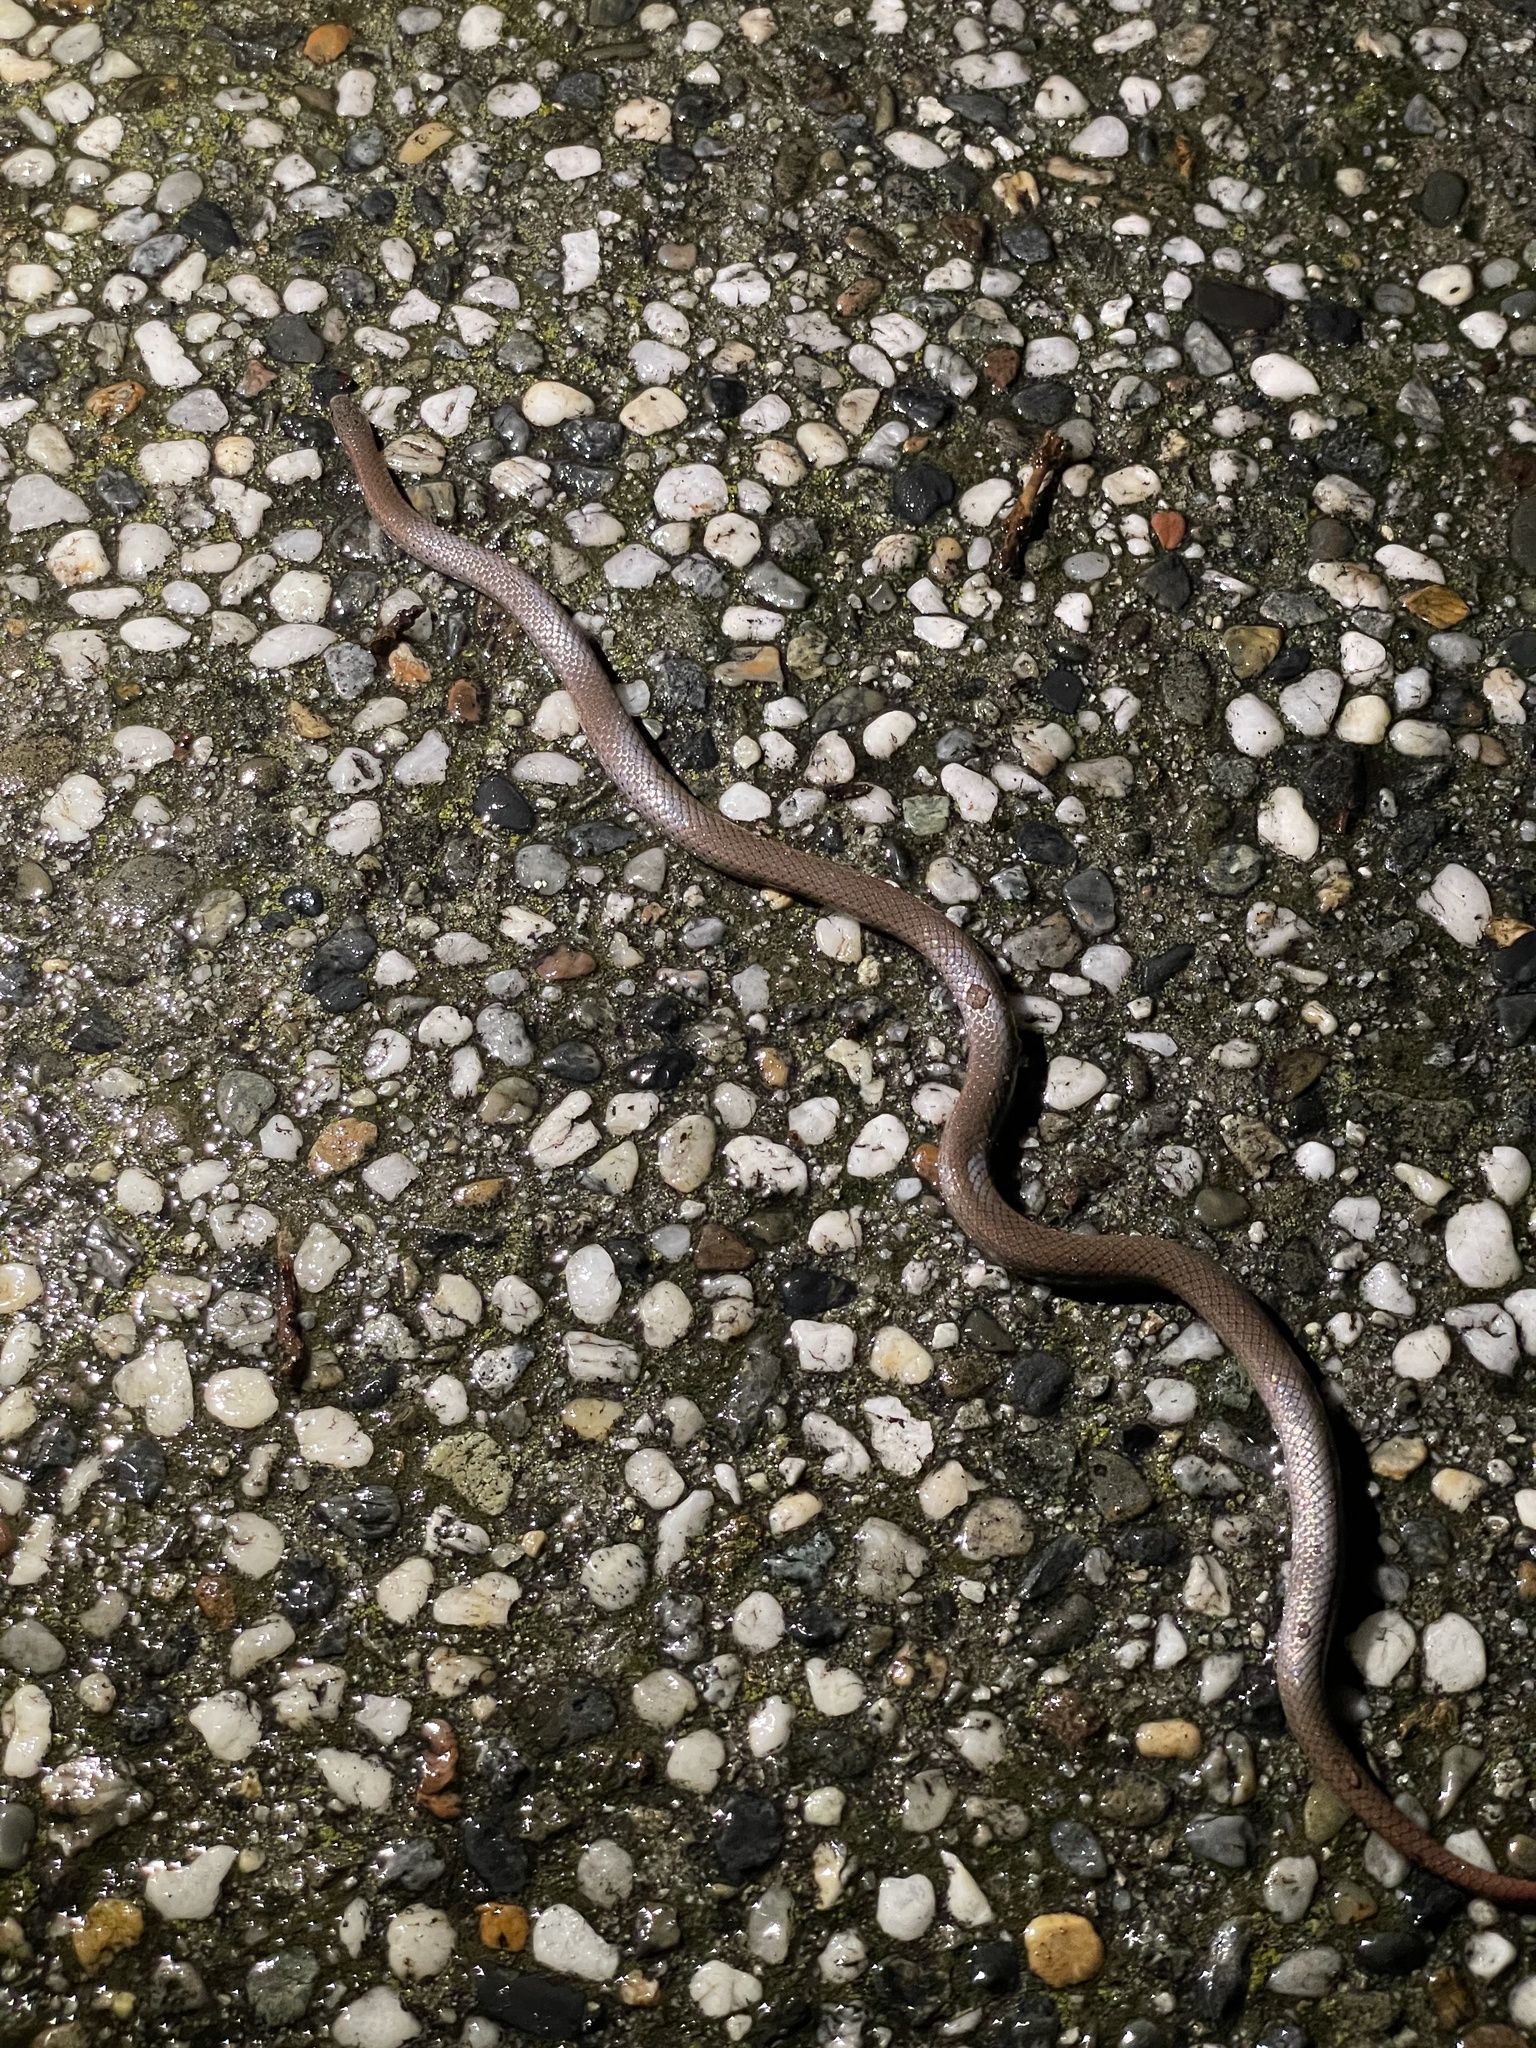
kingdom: Animalia
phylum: Chordata
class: Squamata
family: Colubridae
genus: Contia
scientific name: Contia tenuis
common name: Sharptail snake
